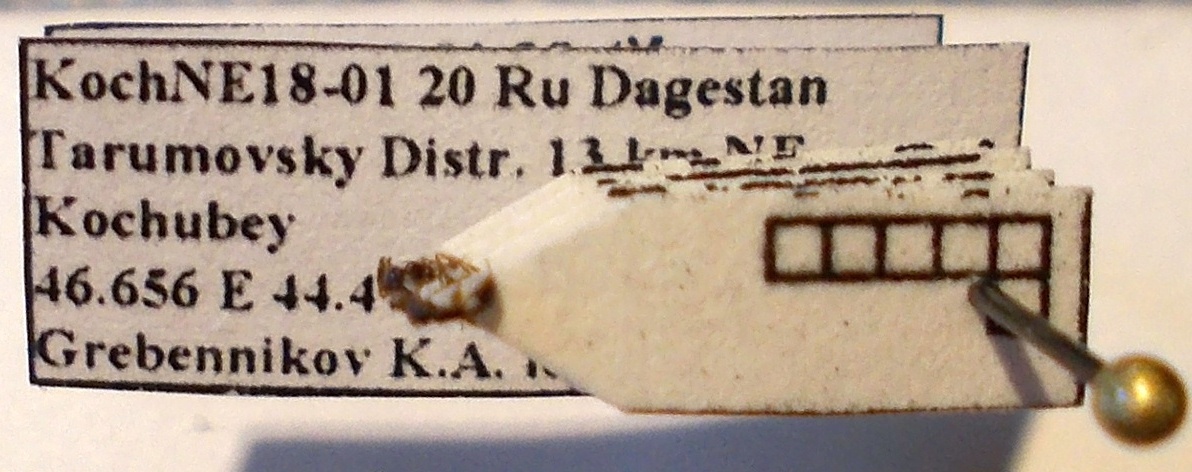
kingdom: Animalia
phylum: Arthropoda
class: Insecta
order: Hymenoptera
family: Formicidae
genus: Cardiocondyla
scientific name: Cardiocondyla stambuloffii
